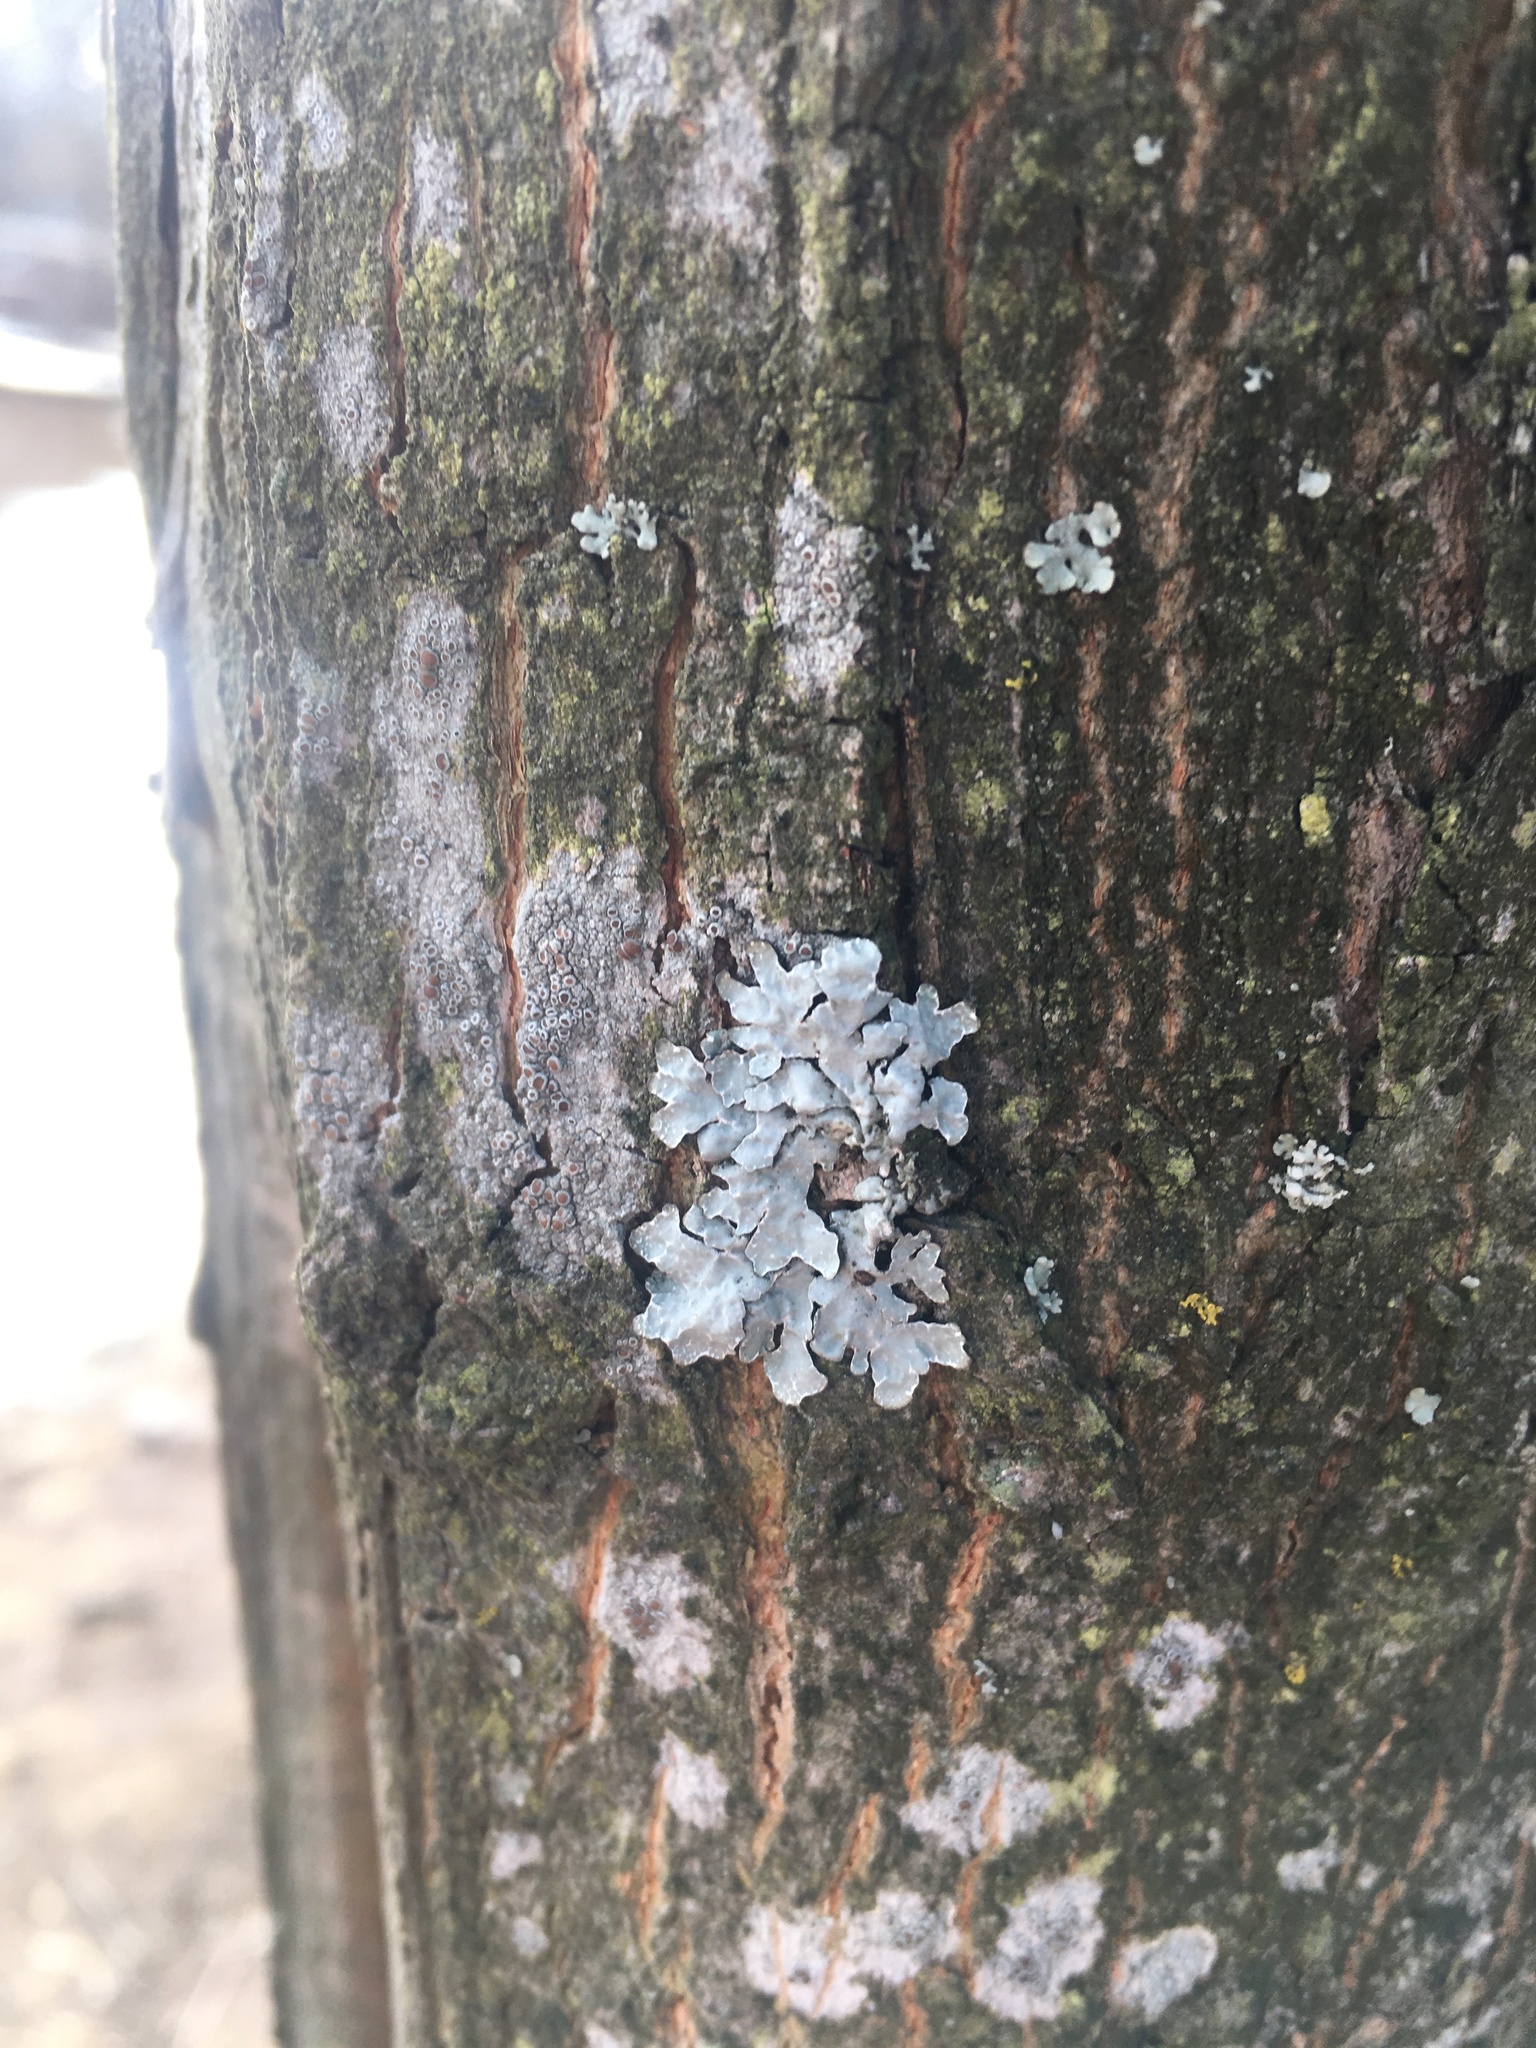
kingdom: Fungi
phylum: Ascomycota
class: Lecanoromycetes
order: Lecanorales
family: Parmeliaceae
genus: Parmelia
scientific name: Parmelia sulcata
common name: Netted shield lichen
